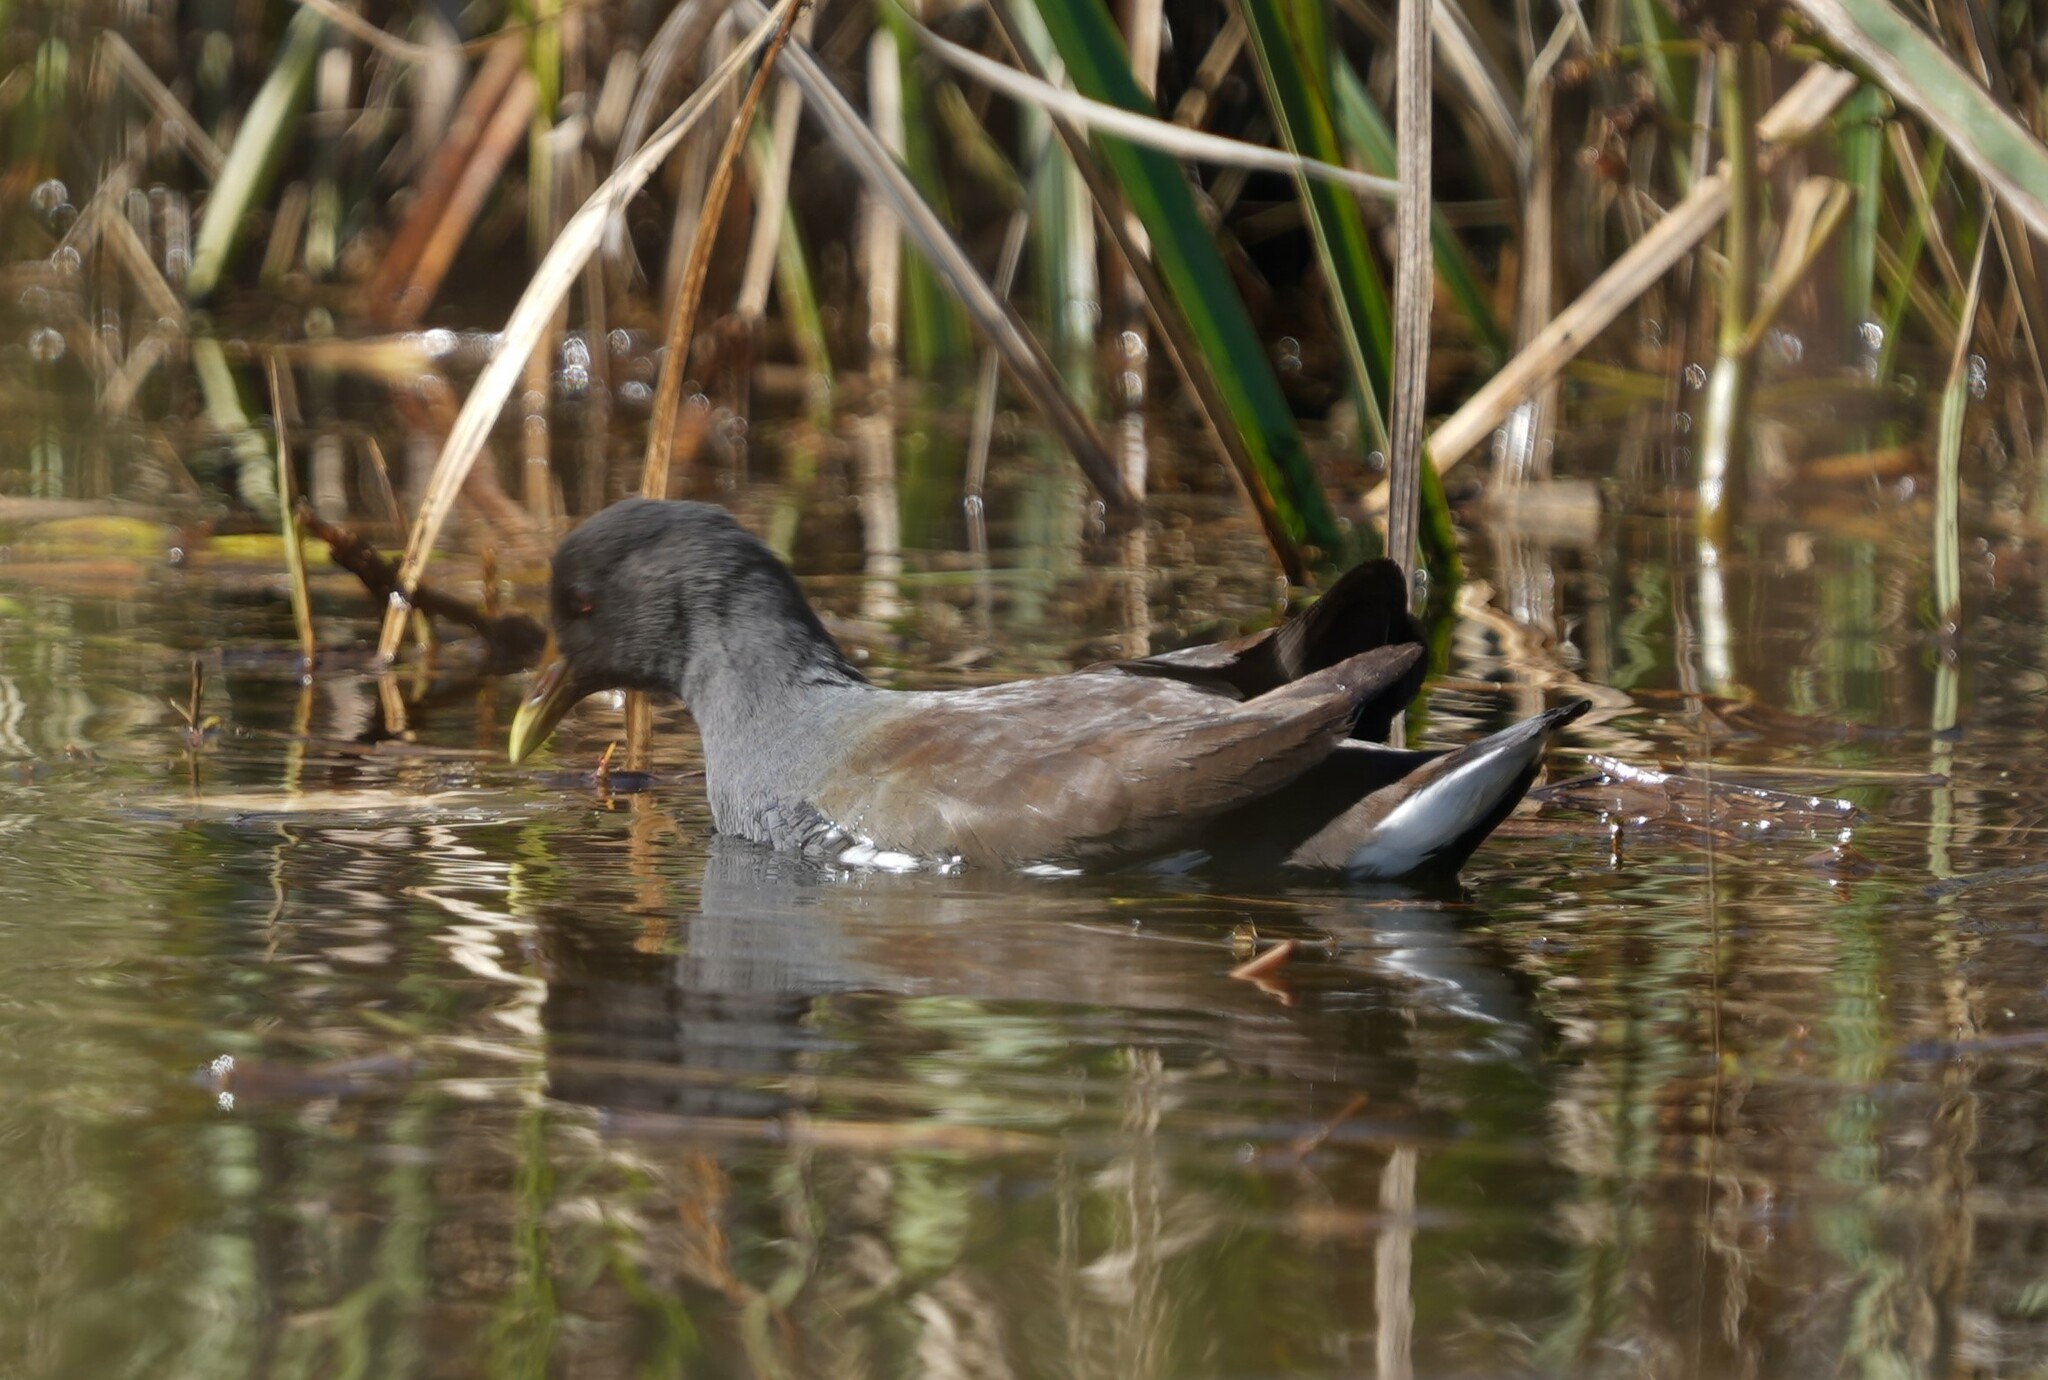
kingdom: Animalia
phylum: Chordata
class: Aves
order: Gruiformes
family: Rallidae
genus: Gallinula
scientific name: Gallinula chloropus
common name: Common moorhen
